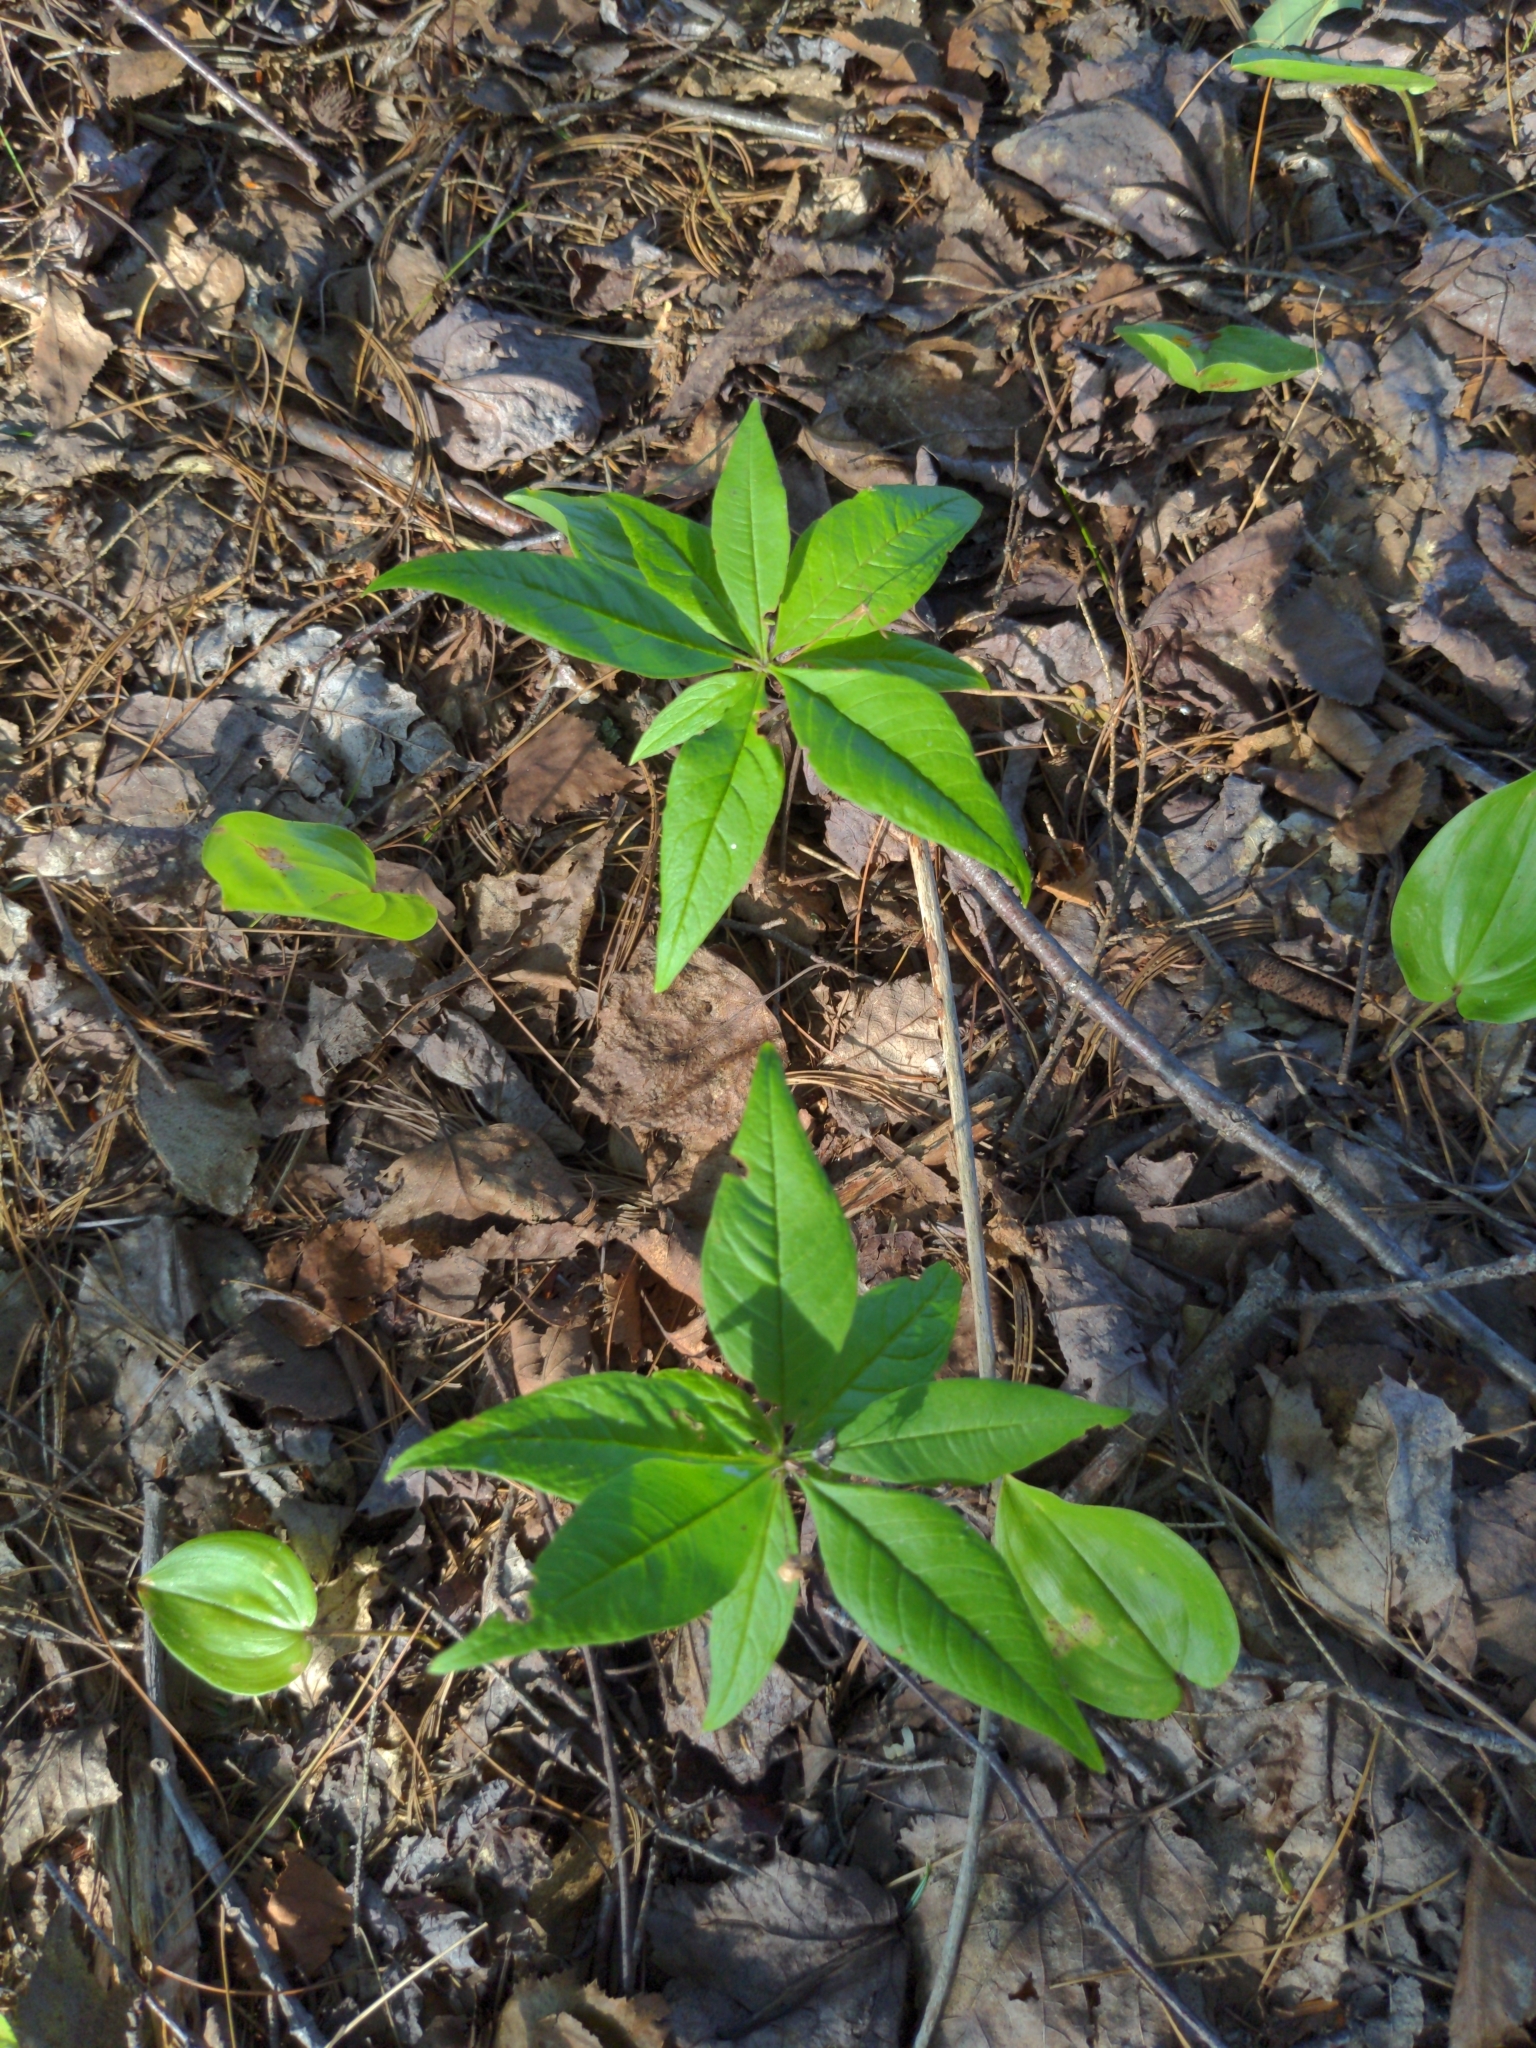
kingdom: Plantae
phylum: Tracheophyta
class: Magnoliopsida
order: Ericales
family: Primulaceae
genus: Lysimachia
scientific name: Lysimachia borealis
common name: American starflower
